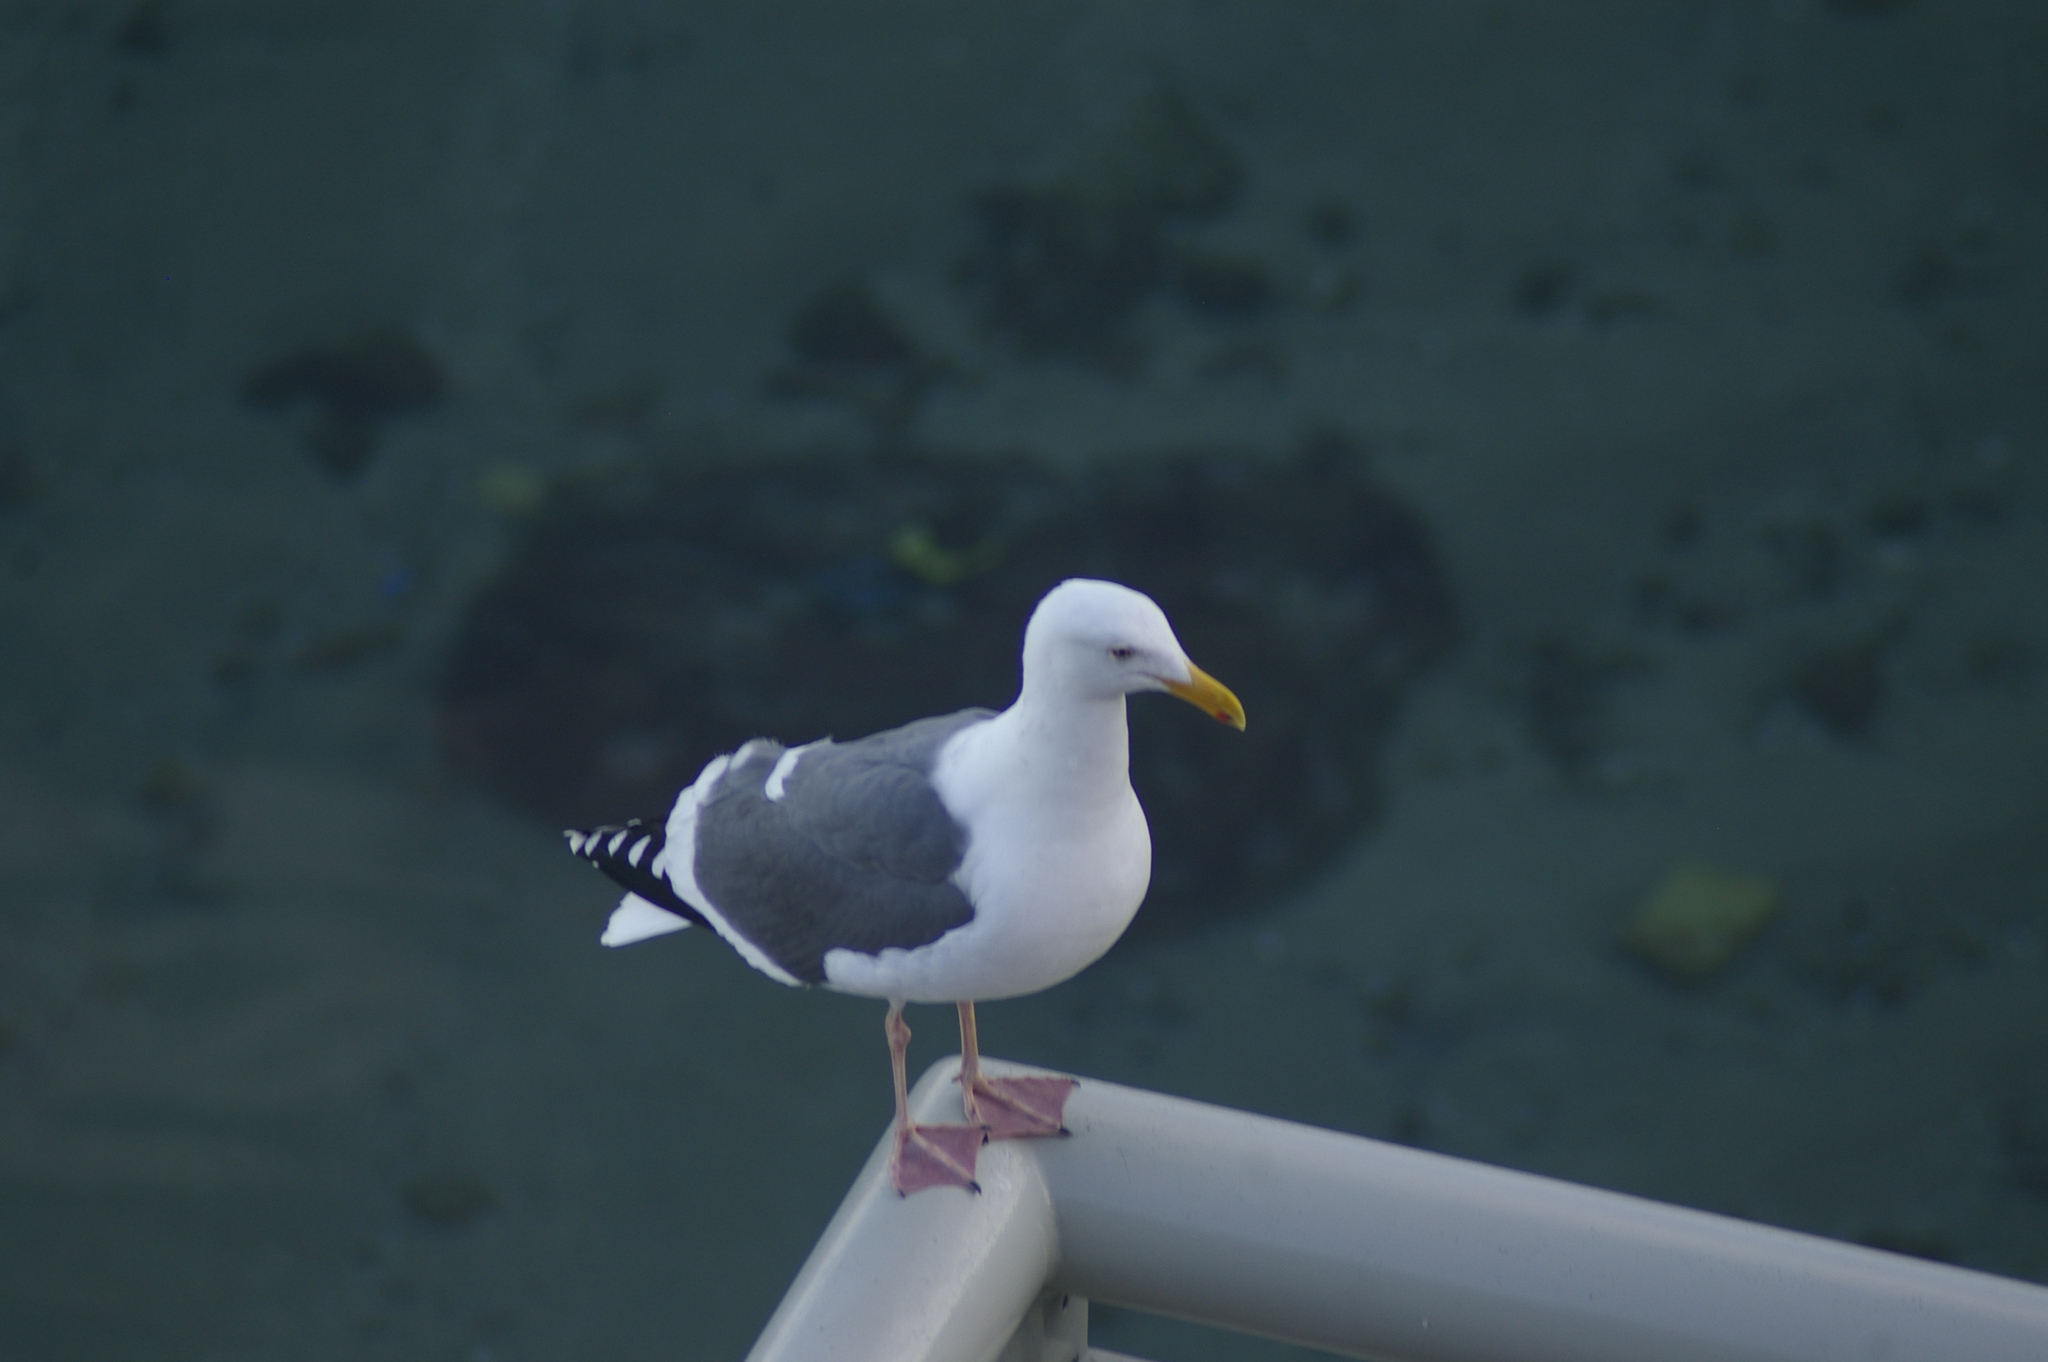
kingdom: Animalia
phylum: Chordata
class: Aves
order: Charadriiformes
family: Laridae
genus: Larus
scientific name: Larus occidentalis
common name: Western gull
